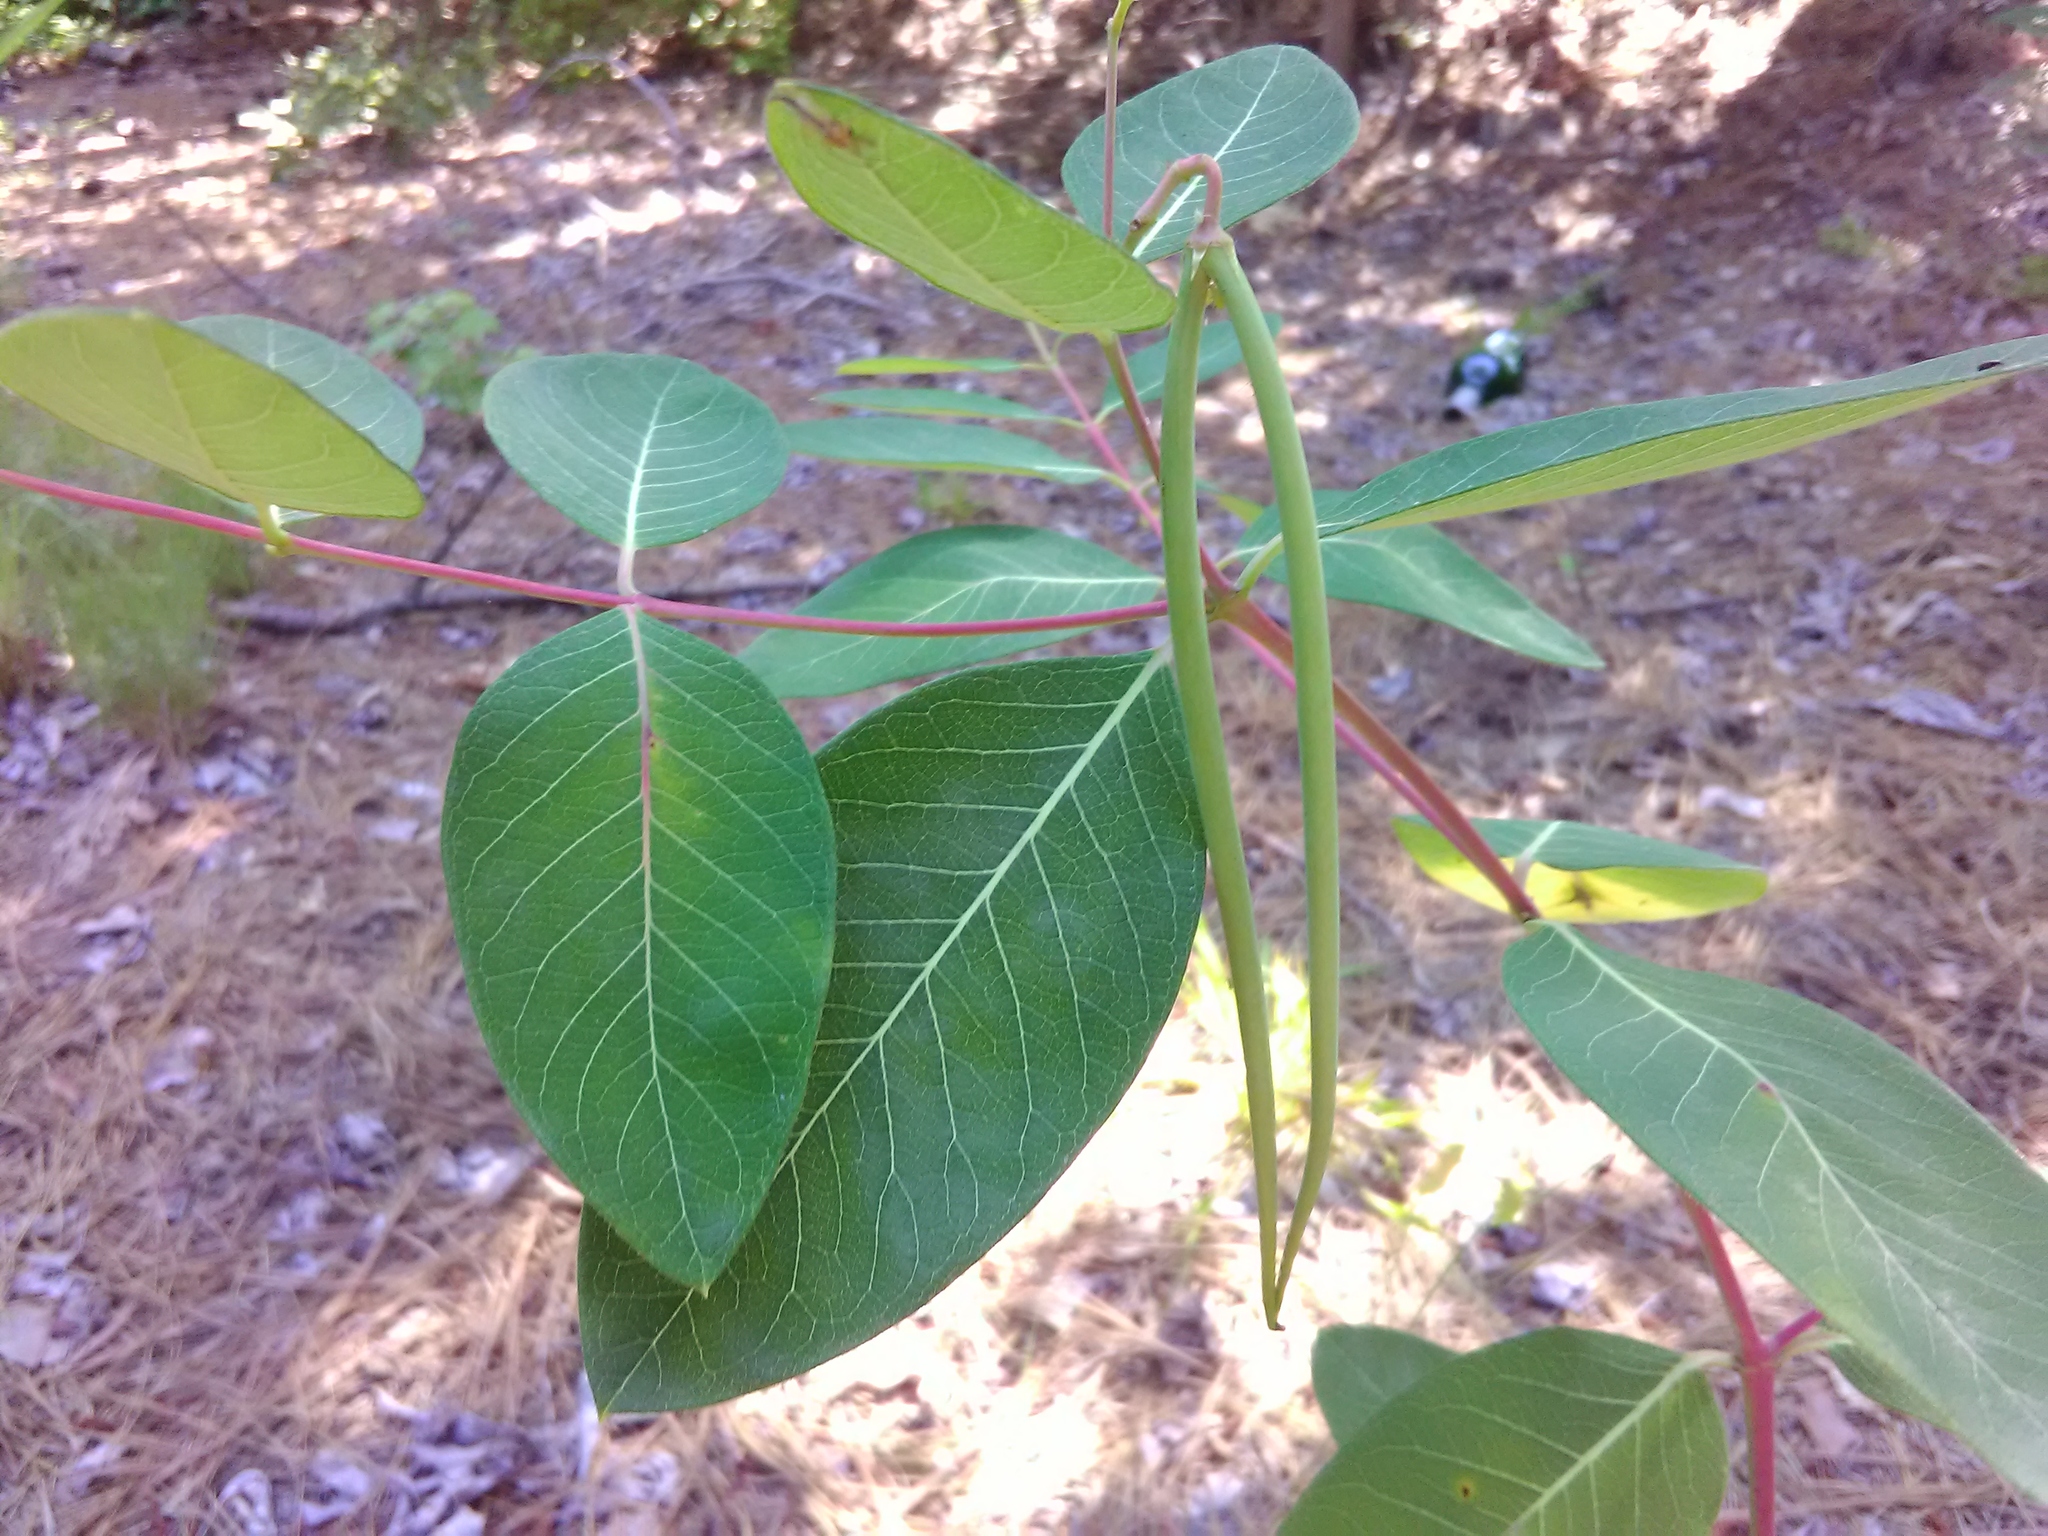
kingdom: Plantae
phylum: Tracheophyta
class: Magnoliopsida
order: Gentianales
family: Apocynaceae
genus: Apocynum
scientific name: Apocynum cannabinum
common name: Hemp dogbane
